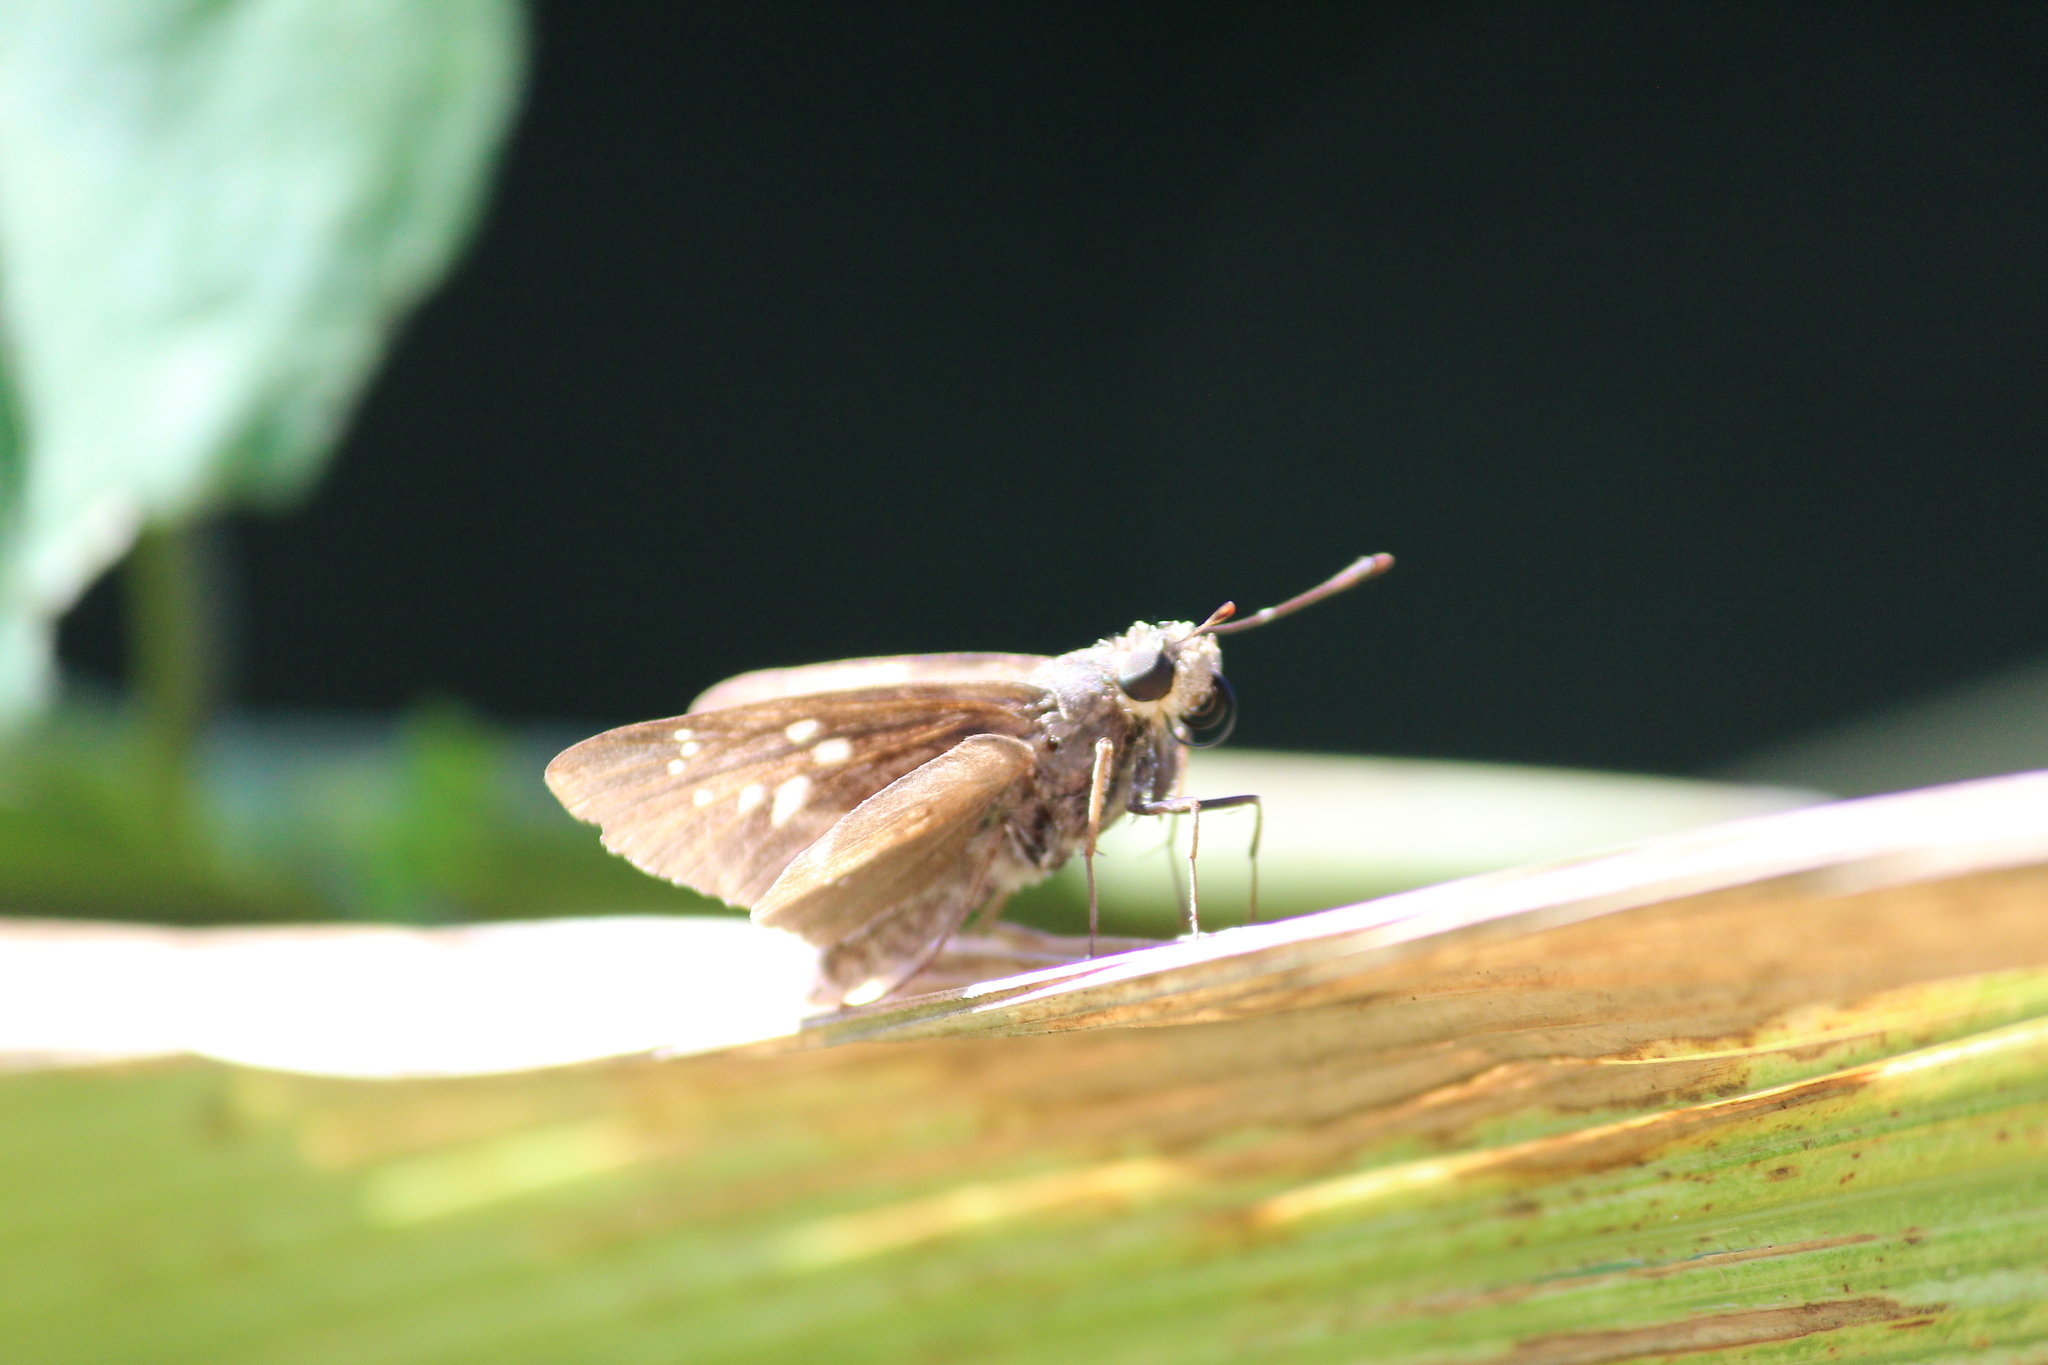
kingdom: Animalia
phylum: Arthropoda
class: Insecta
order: Lepidoptera
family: Hesperiidae
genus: Borbo
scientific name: Borbo fallax
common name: False swift
